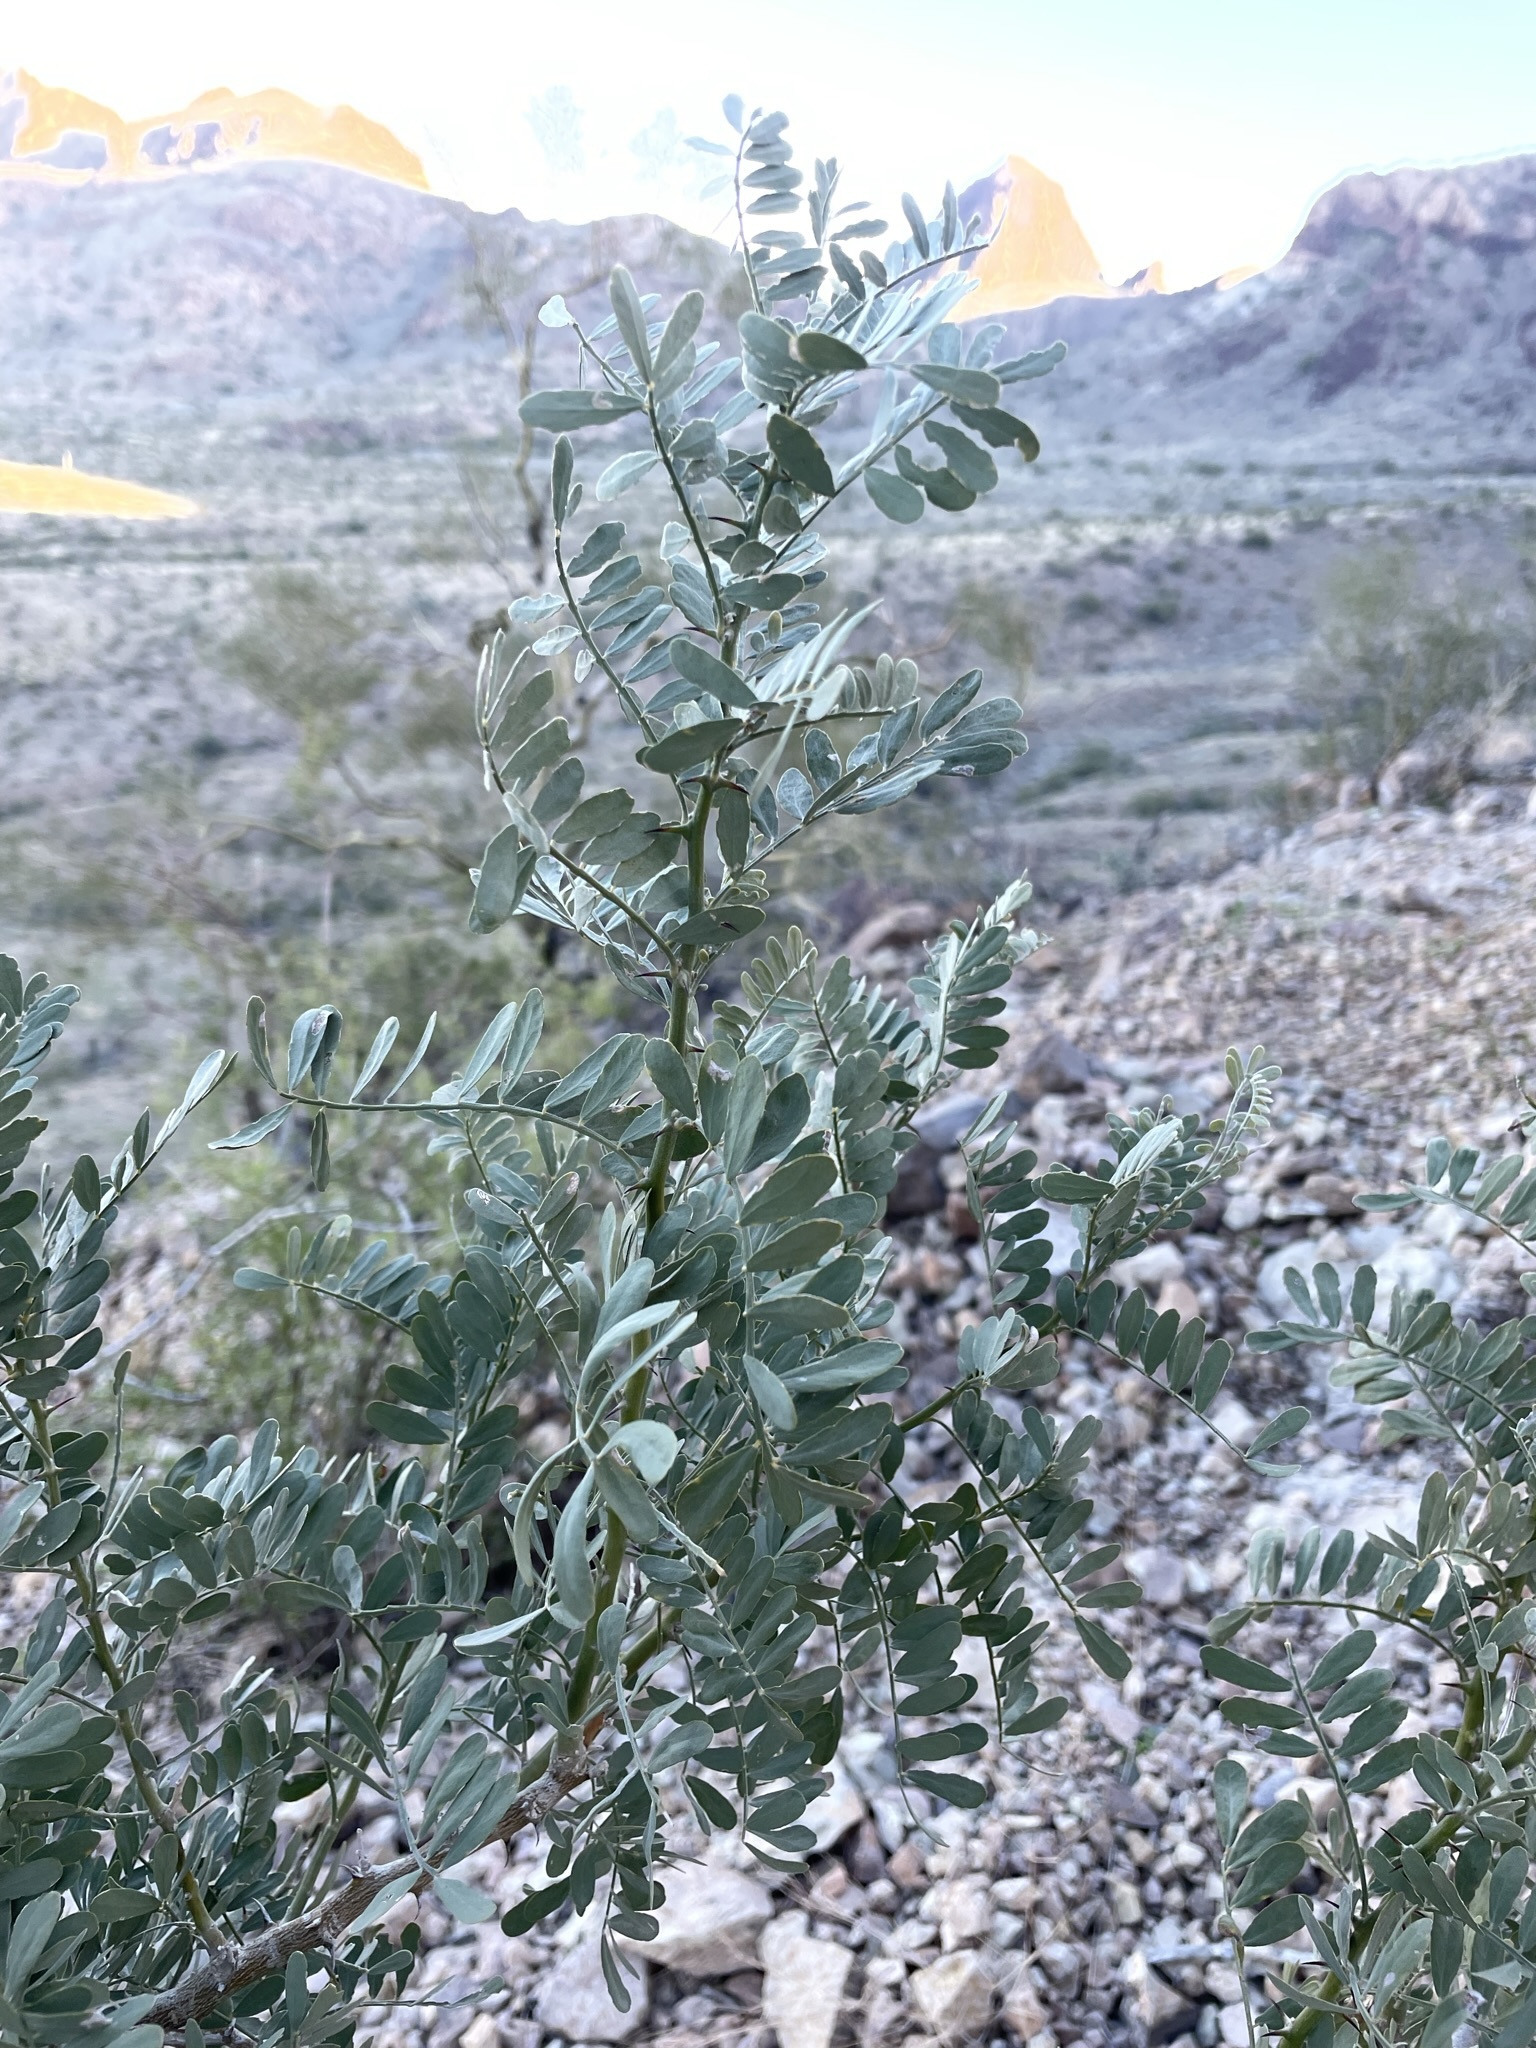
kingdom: Plantae
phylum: Tracheophyta
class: Magnoliopsida
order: Fabales
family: Fabaceae
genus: Olneya
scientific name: Olneya tesota
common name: Desert ironwood
